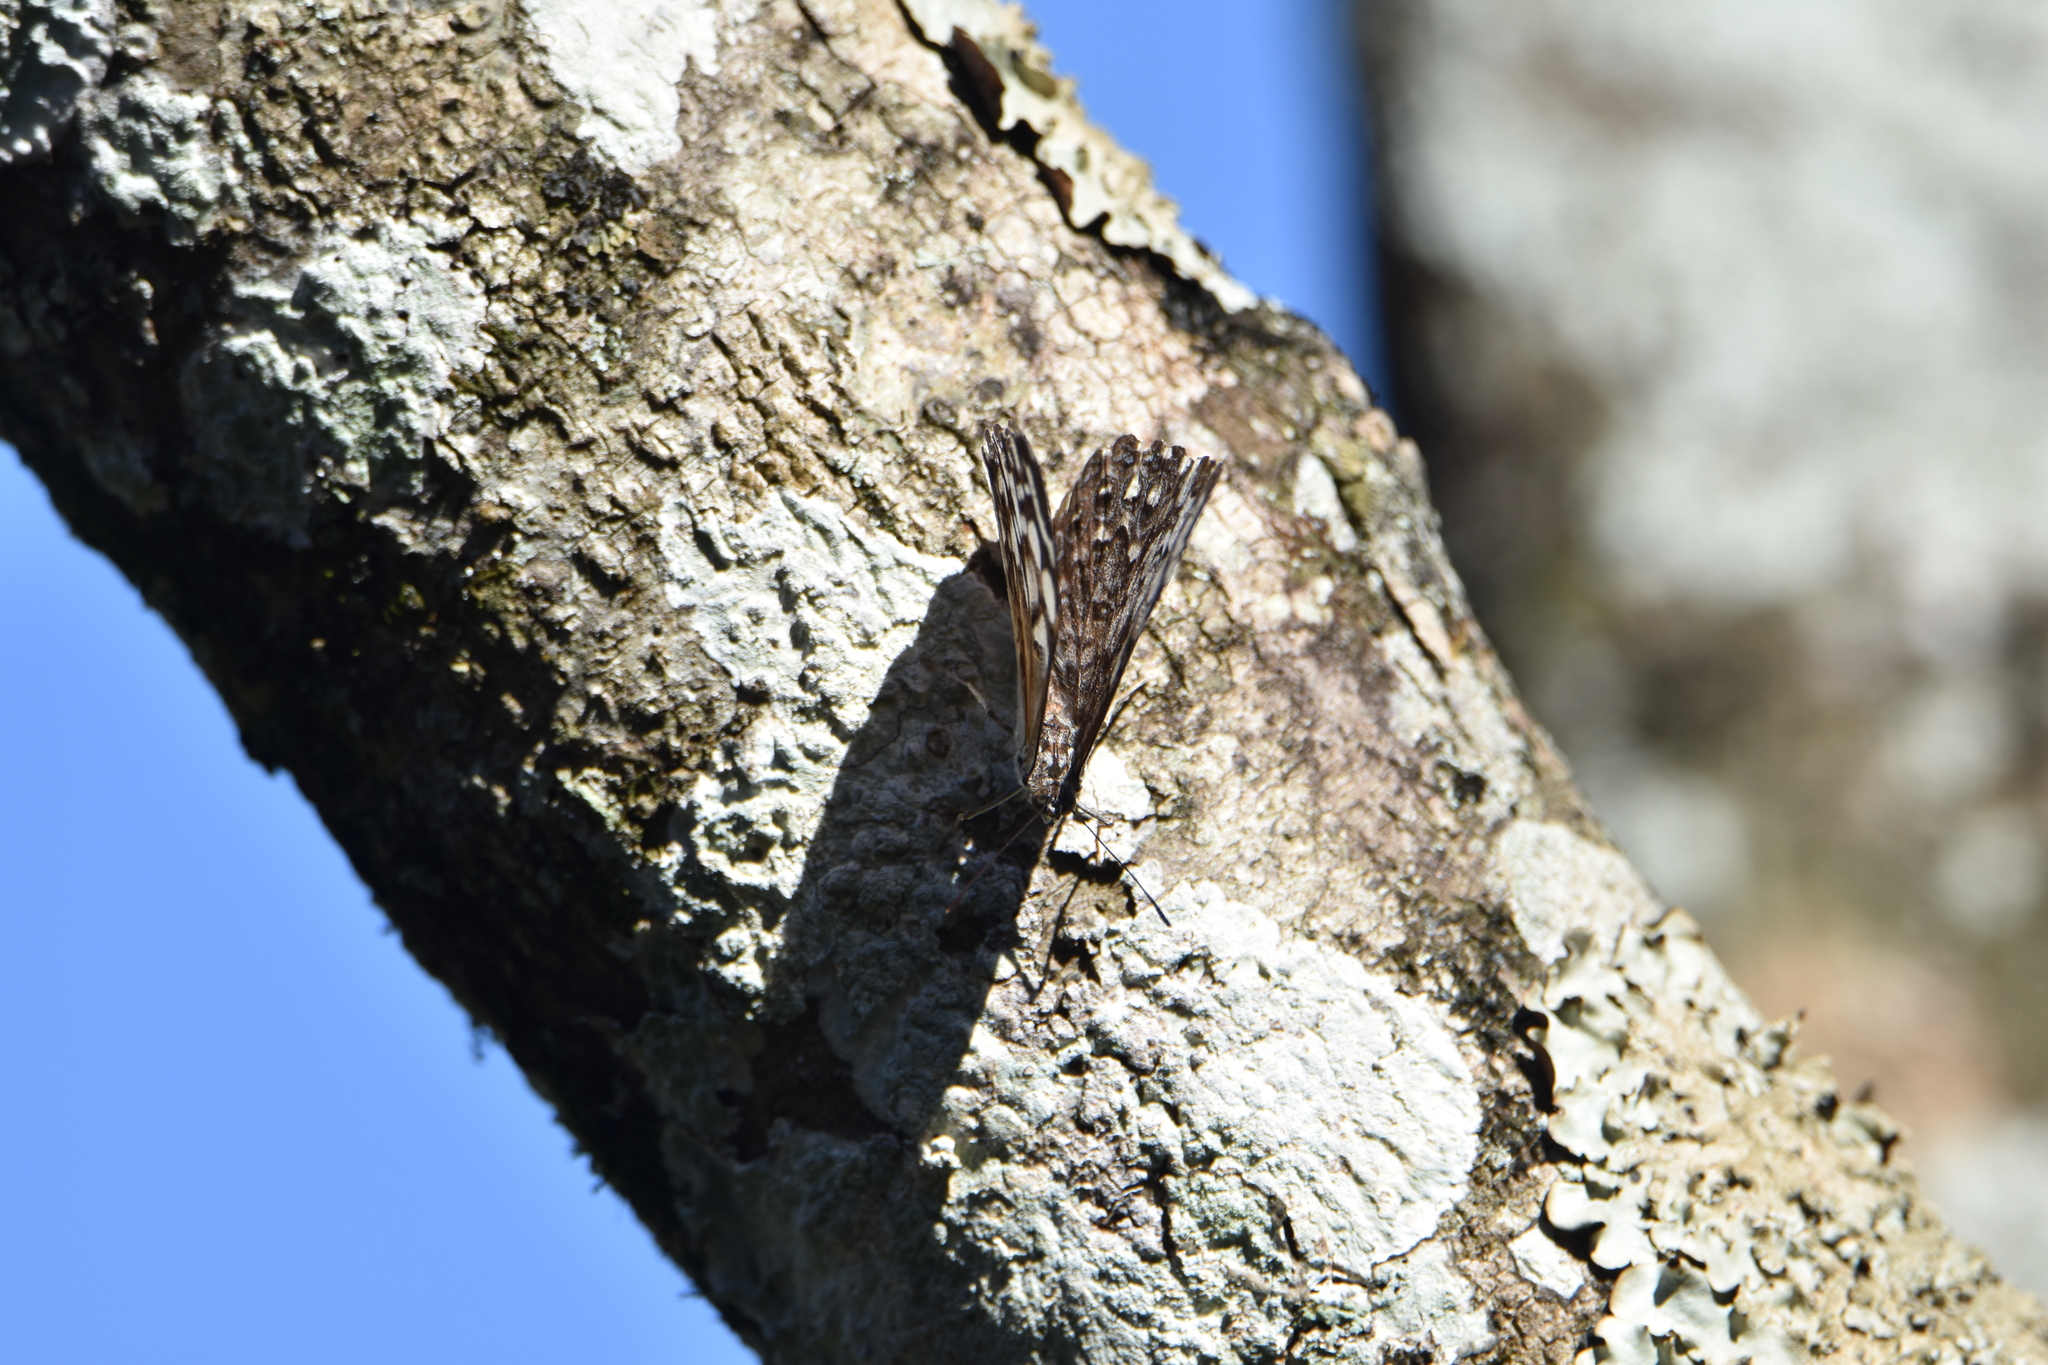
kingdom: Animalia
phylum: Arthropoda
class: Insecta
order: Lepidoptera
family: Nymphalidae
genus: Hamadryas
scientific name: Hamadryas epinome
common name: Epinome cracker
